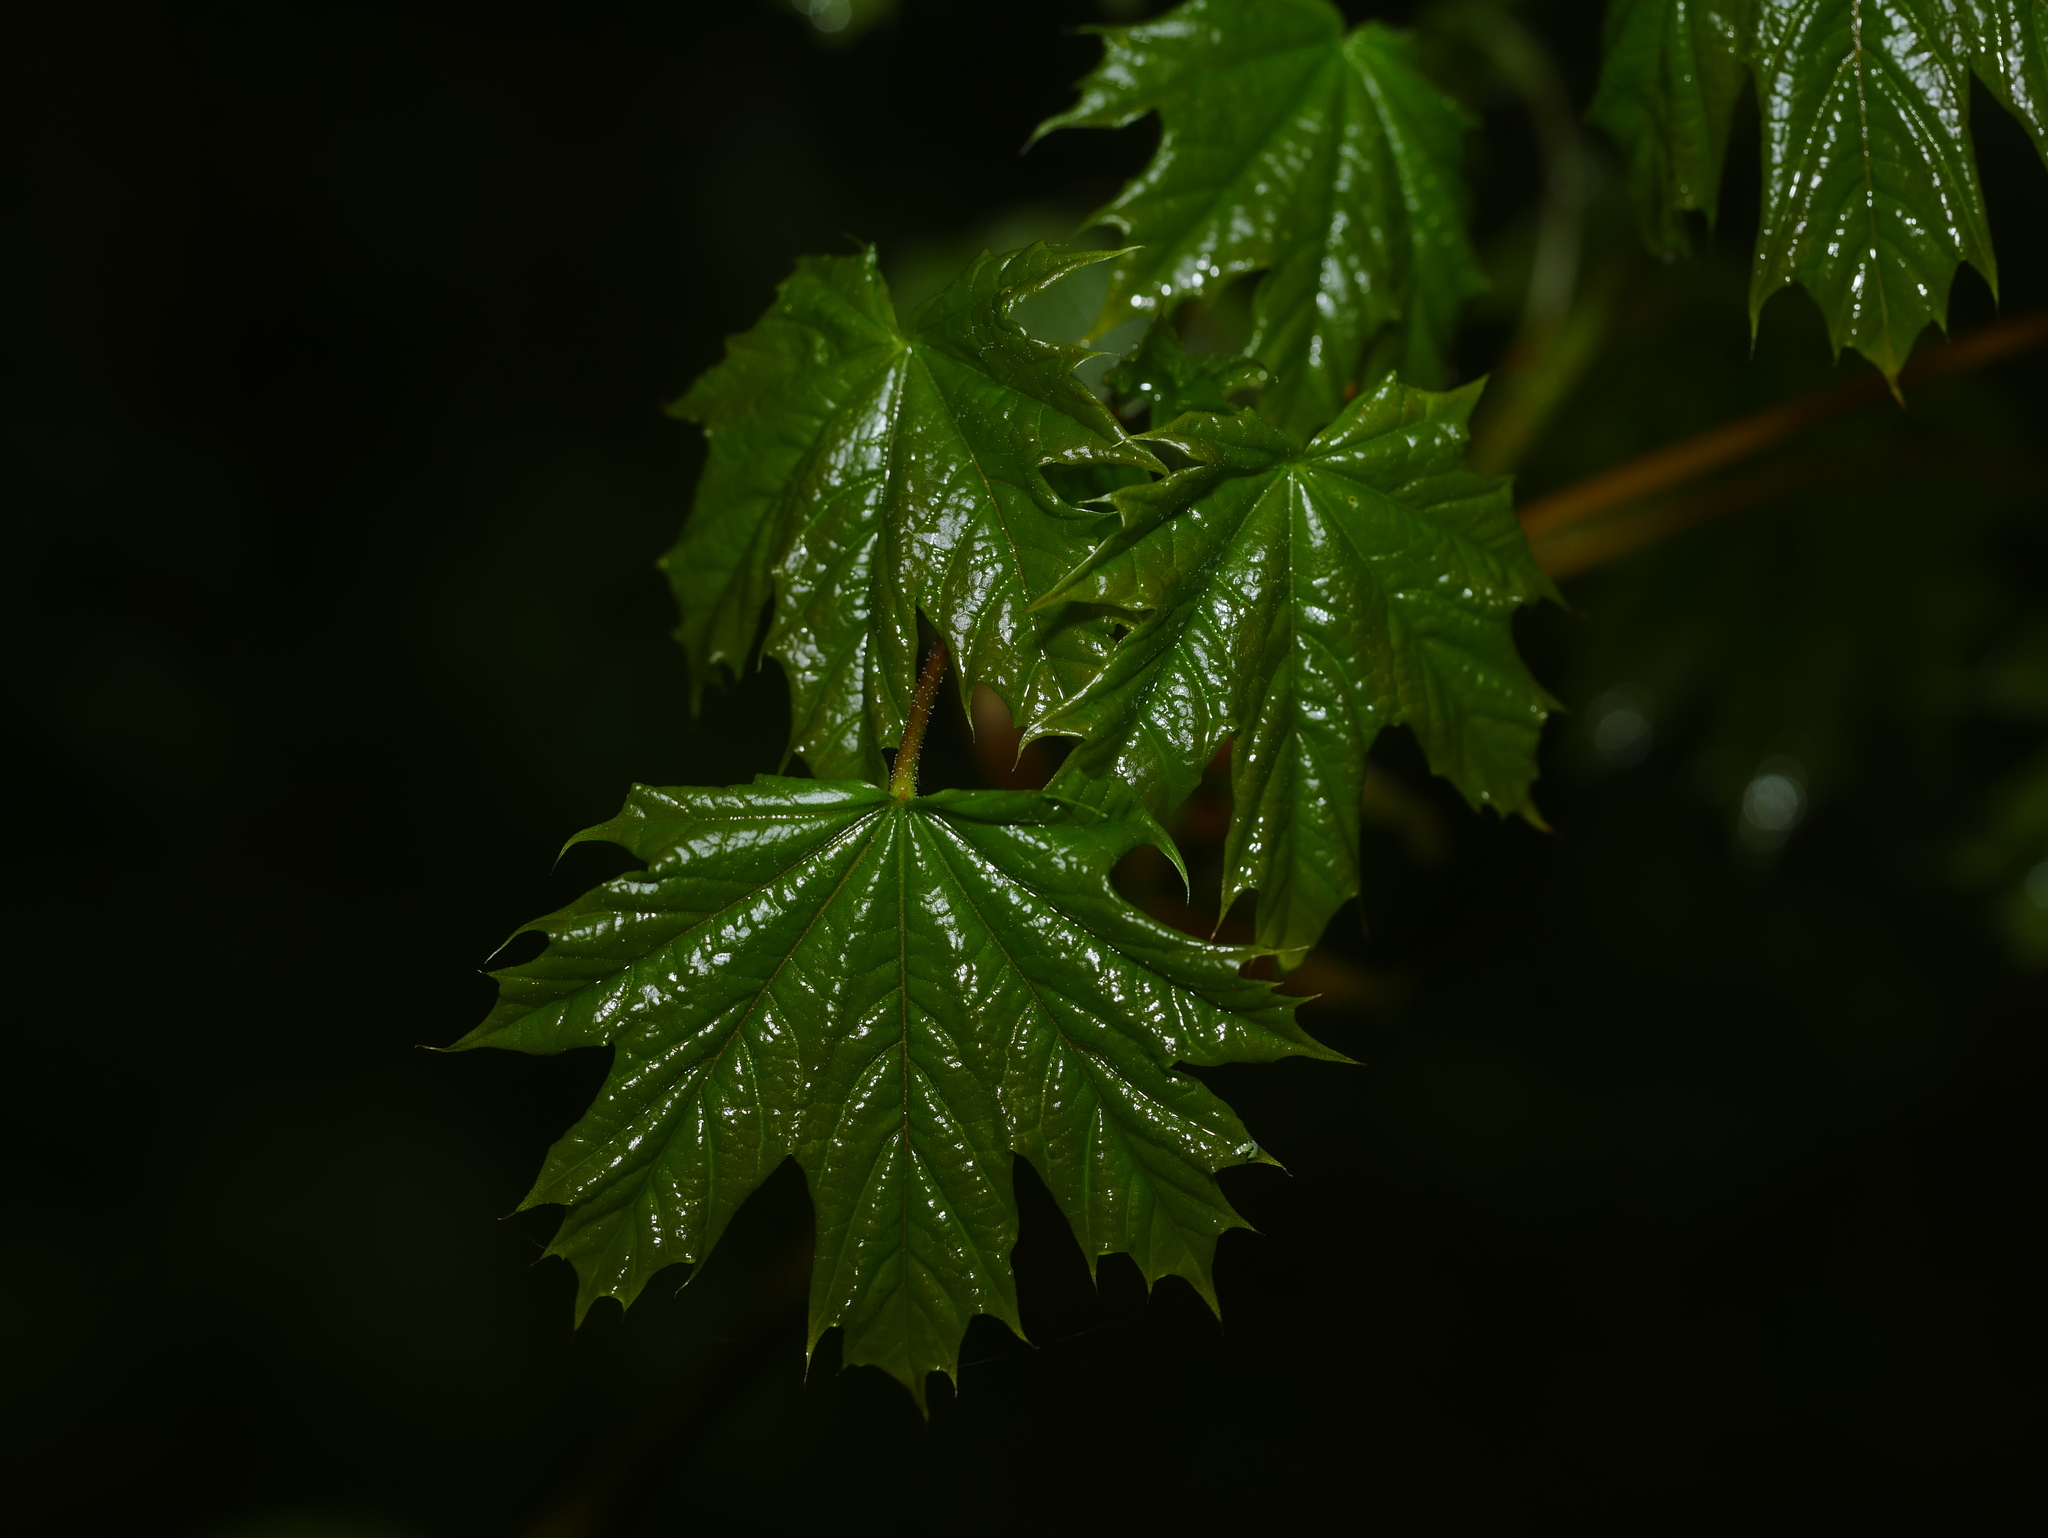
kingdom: Plantae
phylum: Tracheophyta
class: Magnoliopsida
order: Sapindales
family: Sapindaceae
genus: Acer
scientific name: Acer platanoides
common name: Norway maple
